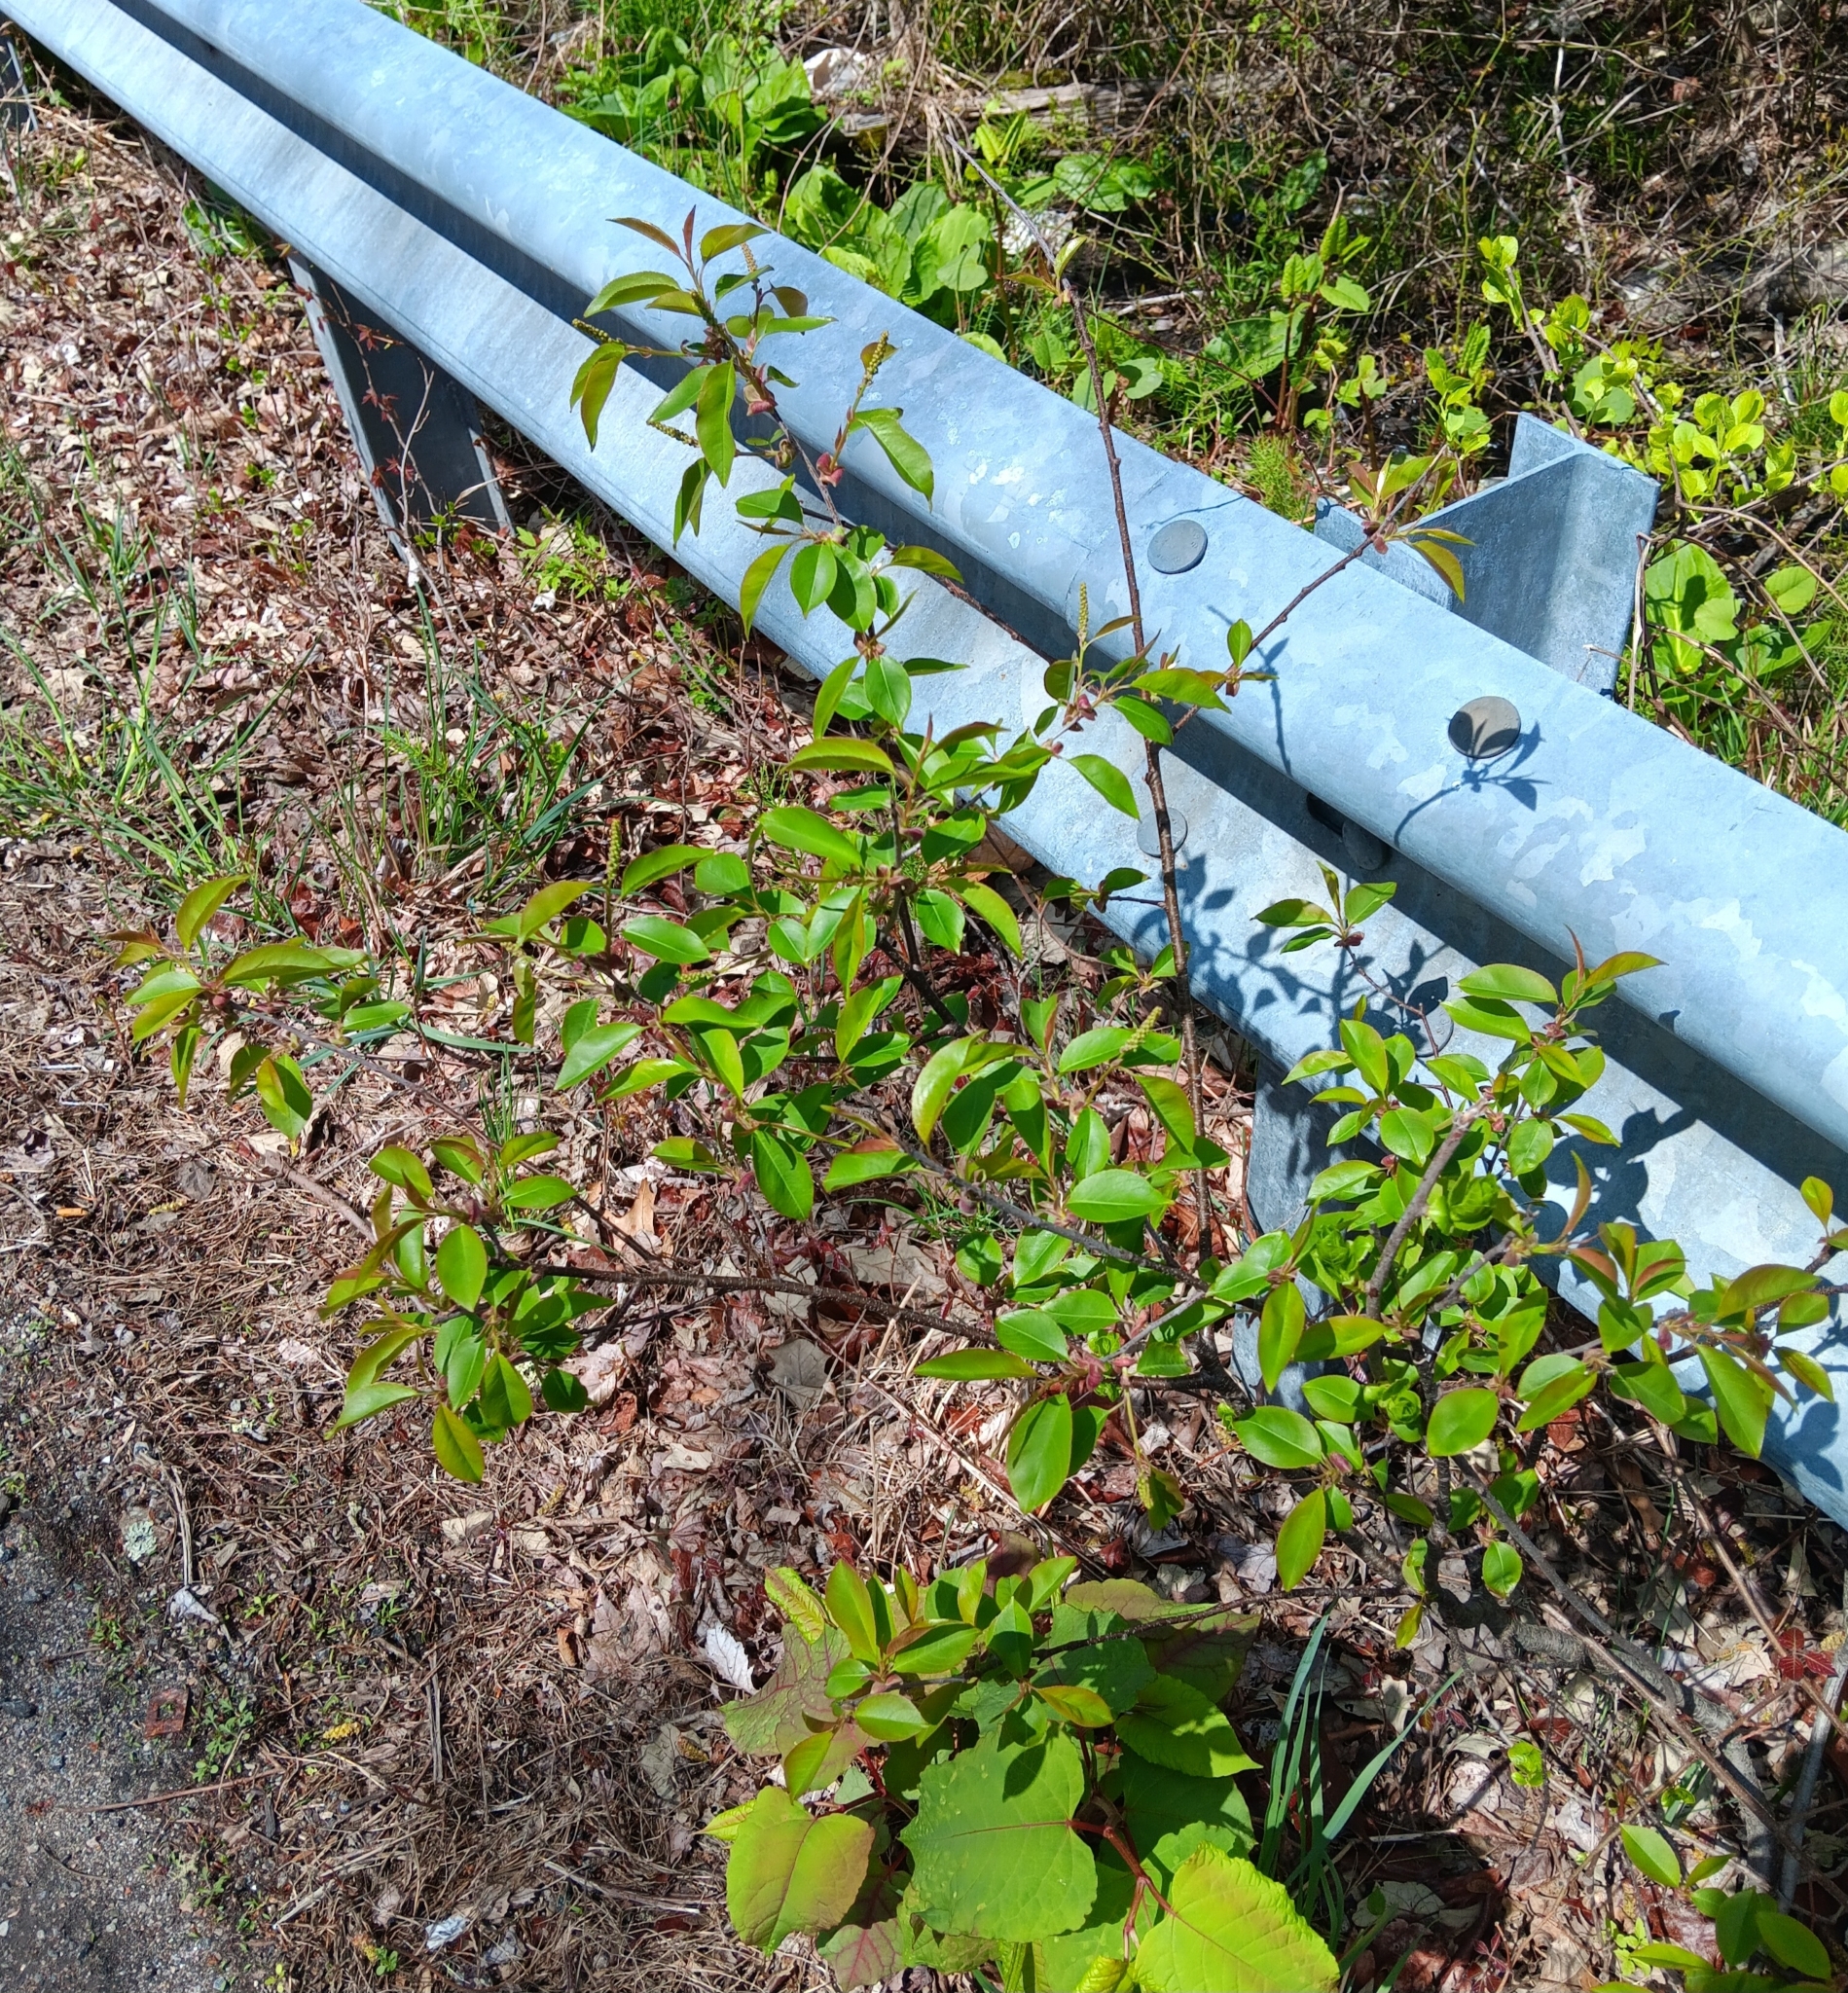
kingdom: Plantae
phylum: Tracheophyta
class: Magnoliopsida
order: Rosales
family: Rosaceae
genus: Prunus
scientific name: Prunus serotina
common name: Black cherry
